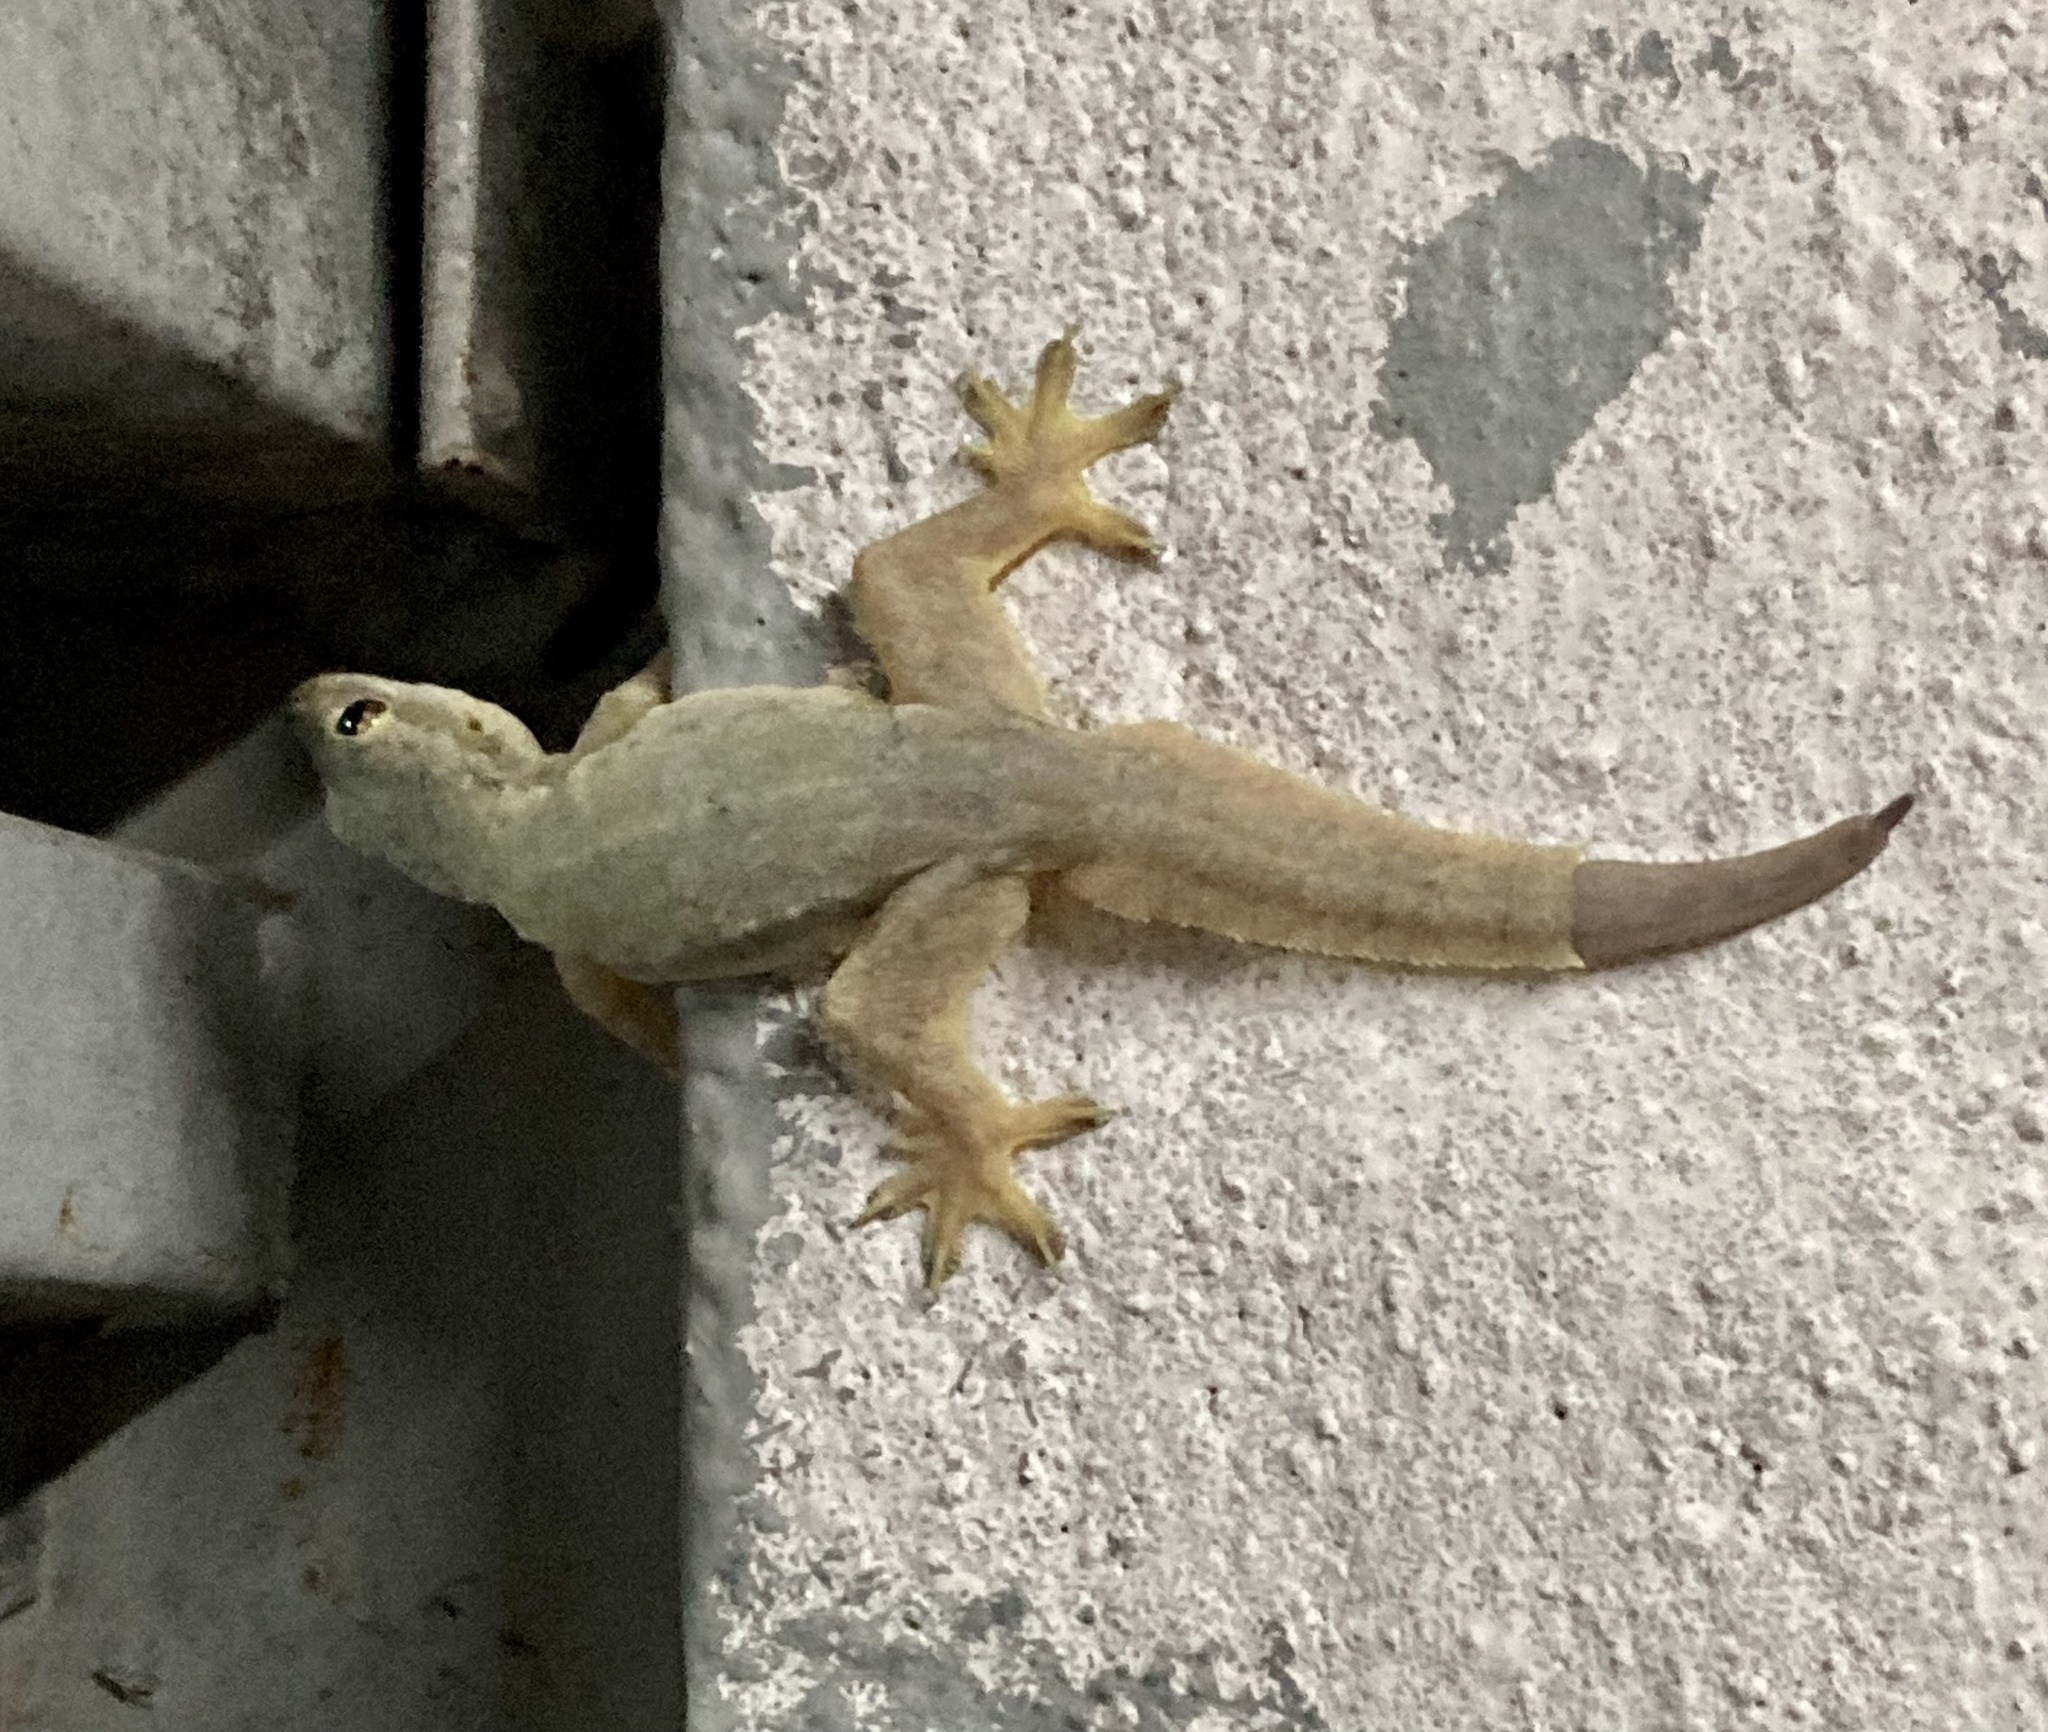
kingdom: Animalia
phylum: Chordata
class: Squamata
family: Gekkonidae
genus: Hemidactylus
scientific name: Hemidactylus platyurus
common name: Flat-tailed house gecko
